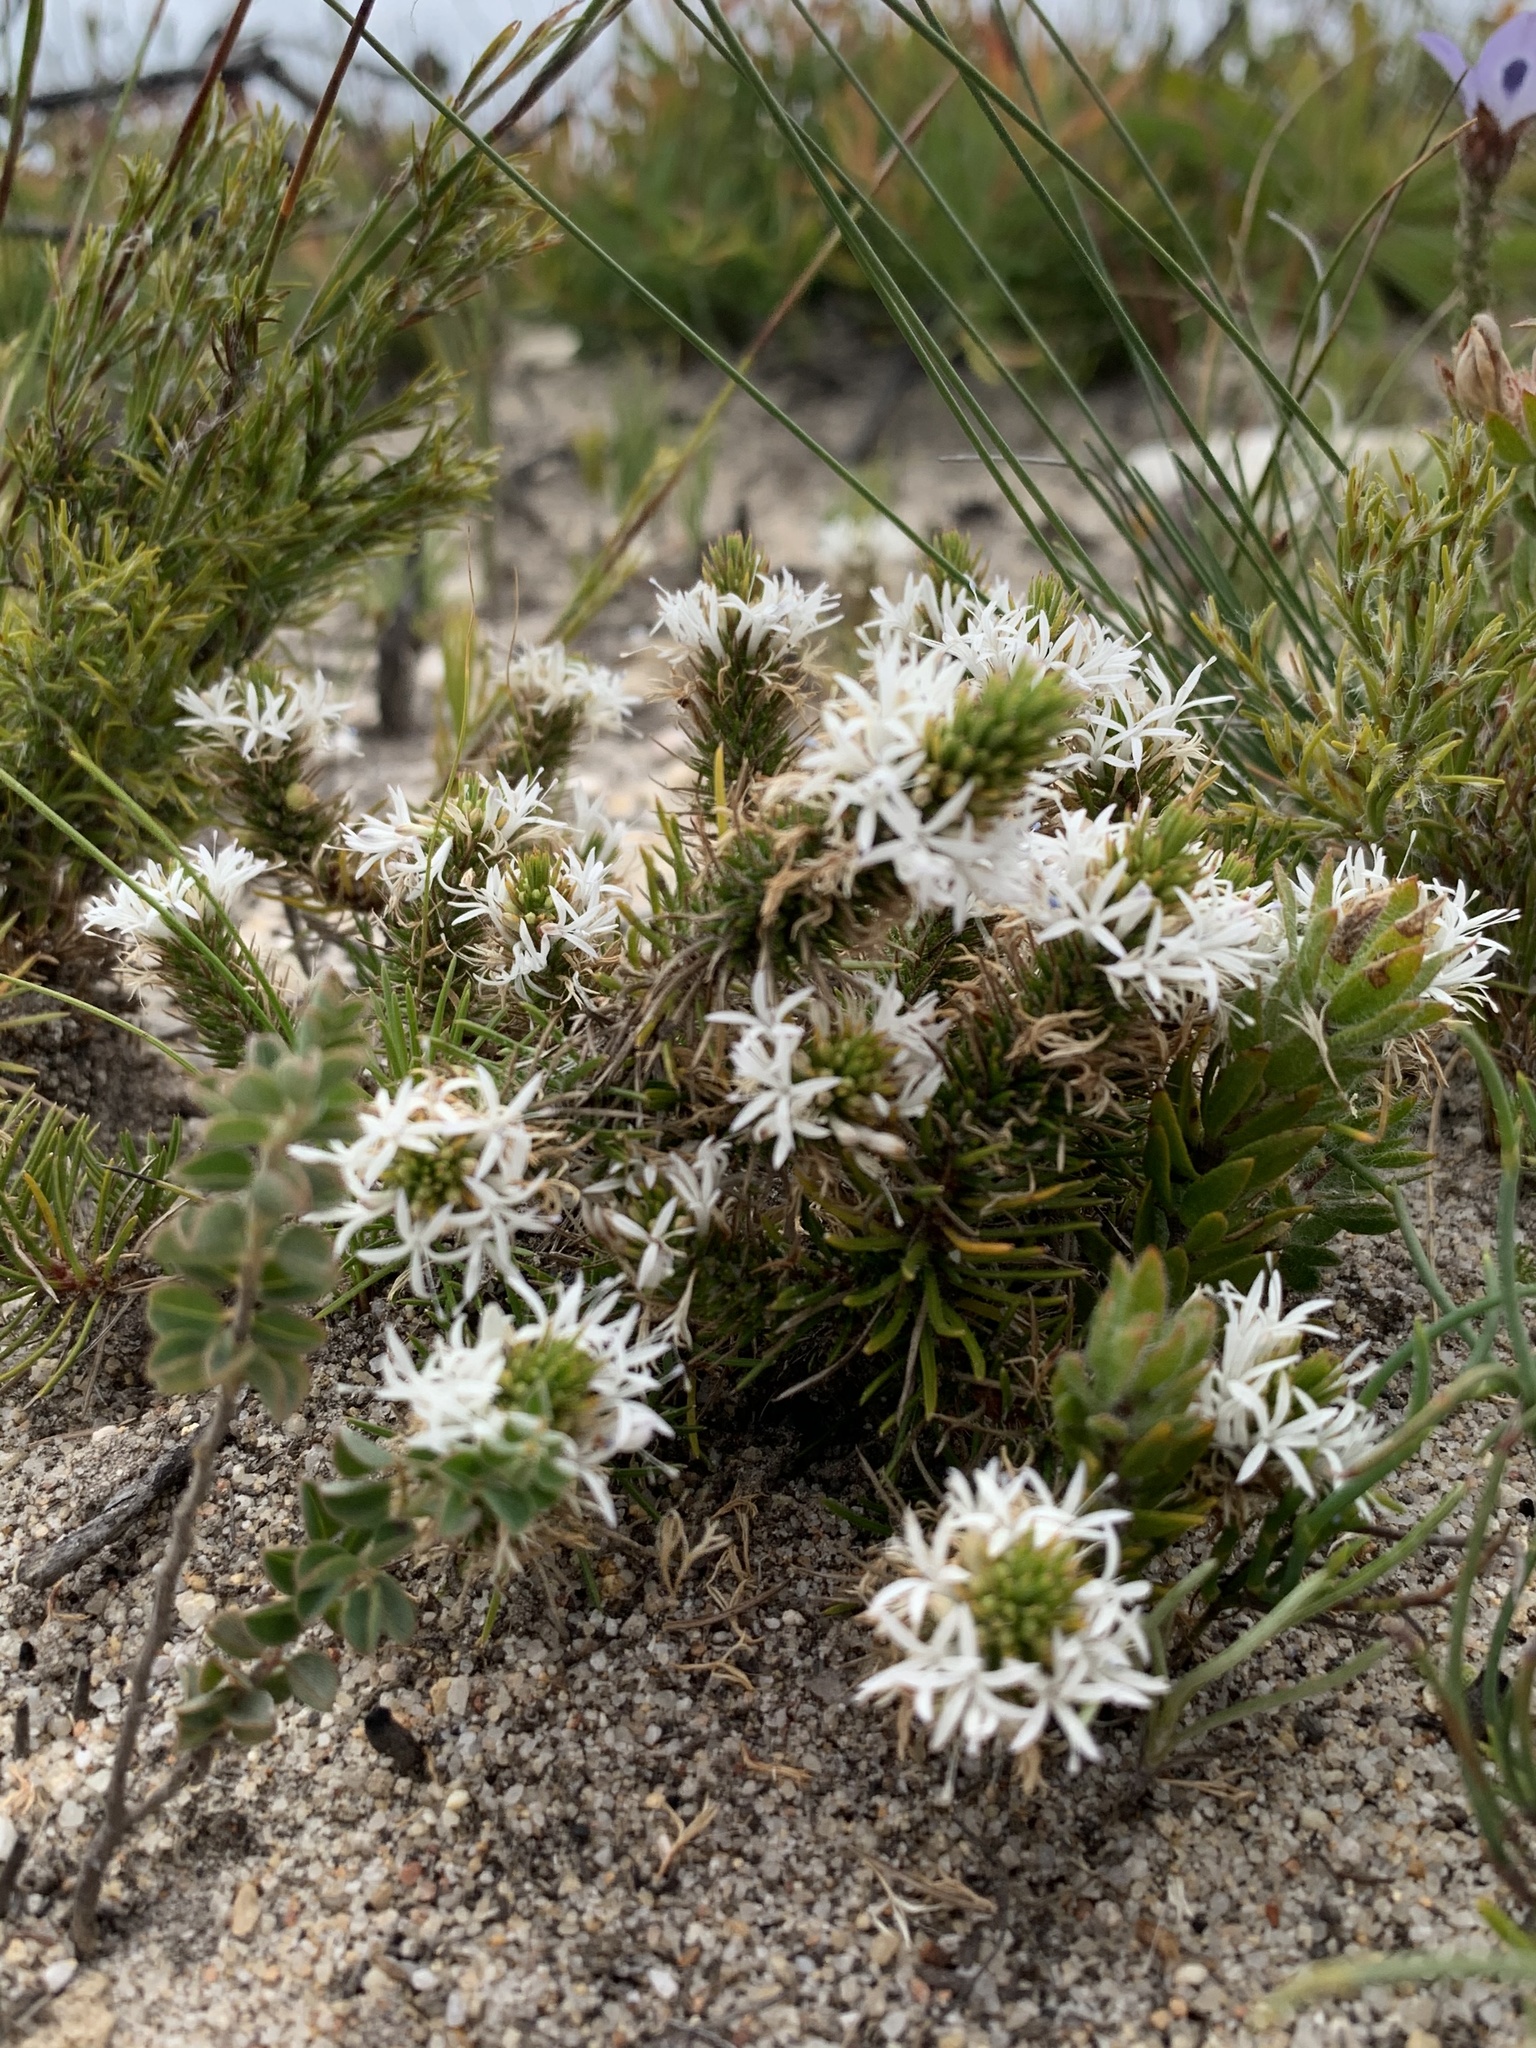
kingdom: Plantae
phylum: Tracheophyta
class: Magnoliopsida
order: Asterales
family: Campanulaceae
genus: Merciera
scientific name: Merciera leptoloba
